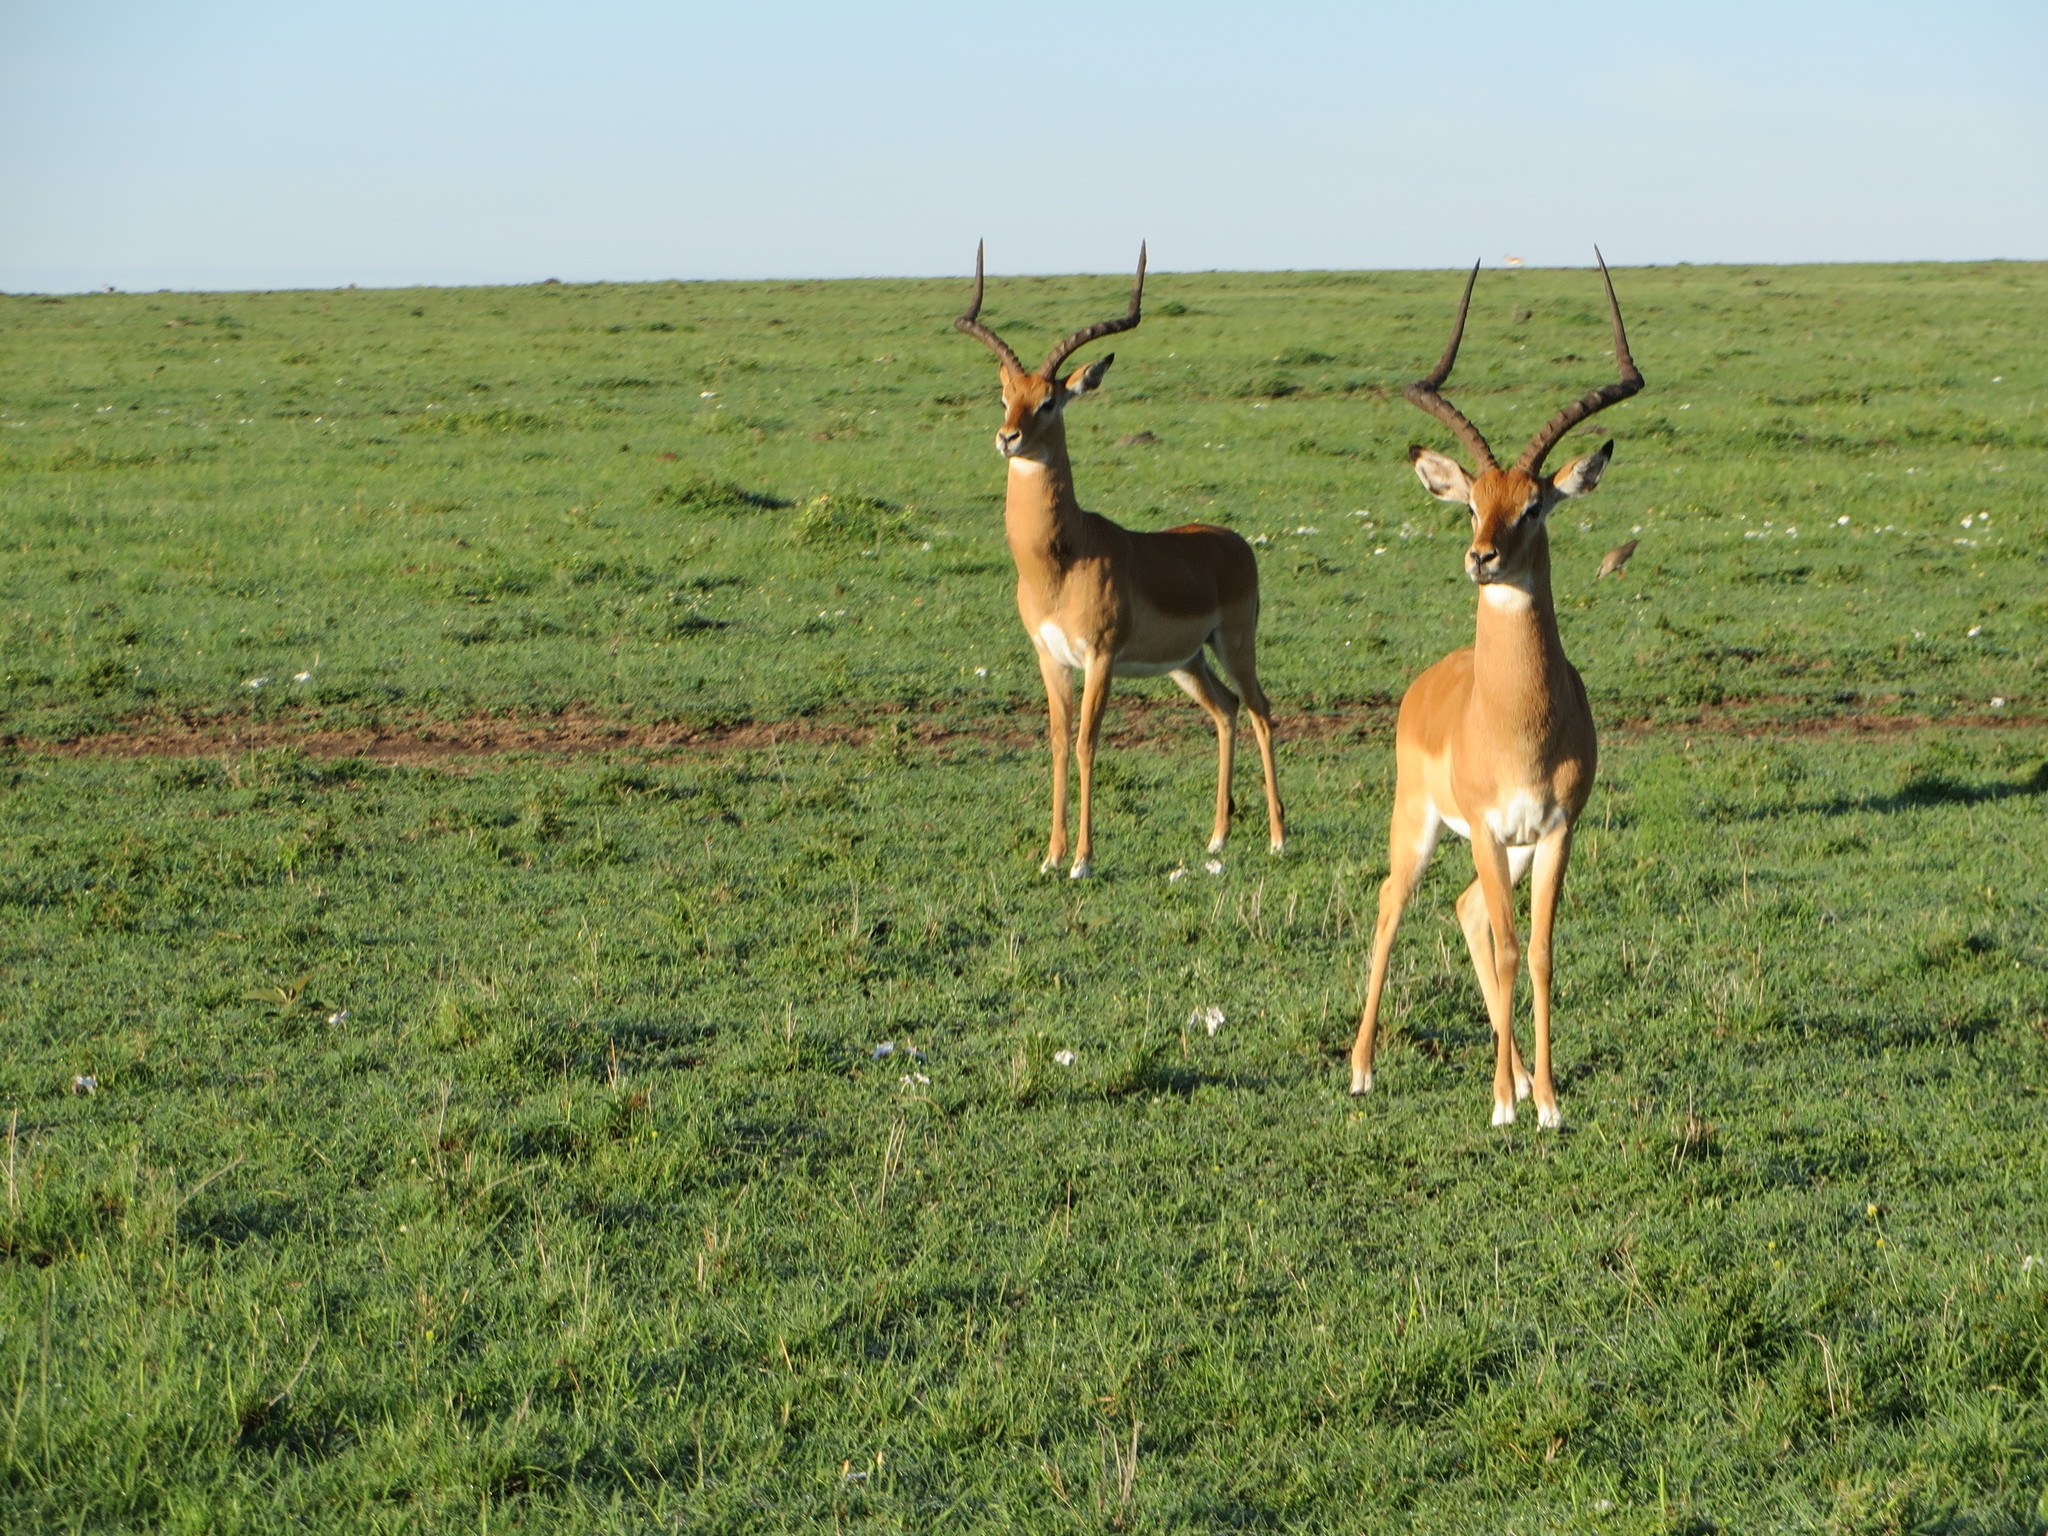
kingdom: Animalia
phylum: Chordata
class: Mammalia
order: Artiodactyla
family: Bovidae
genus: Aepyceros
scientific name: Aepyceros melampus
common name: Impala
